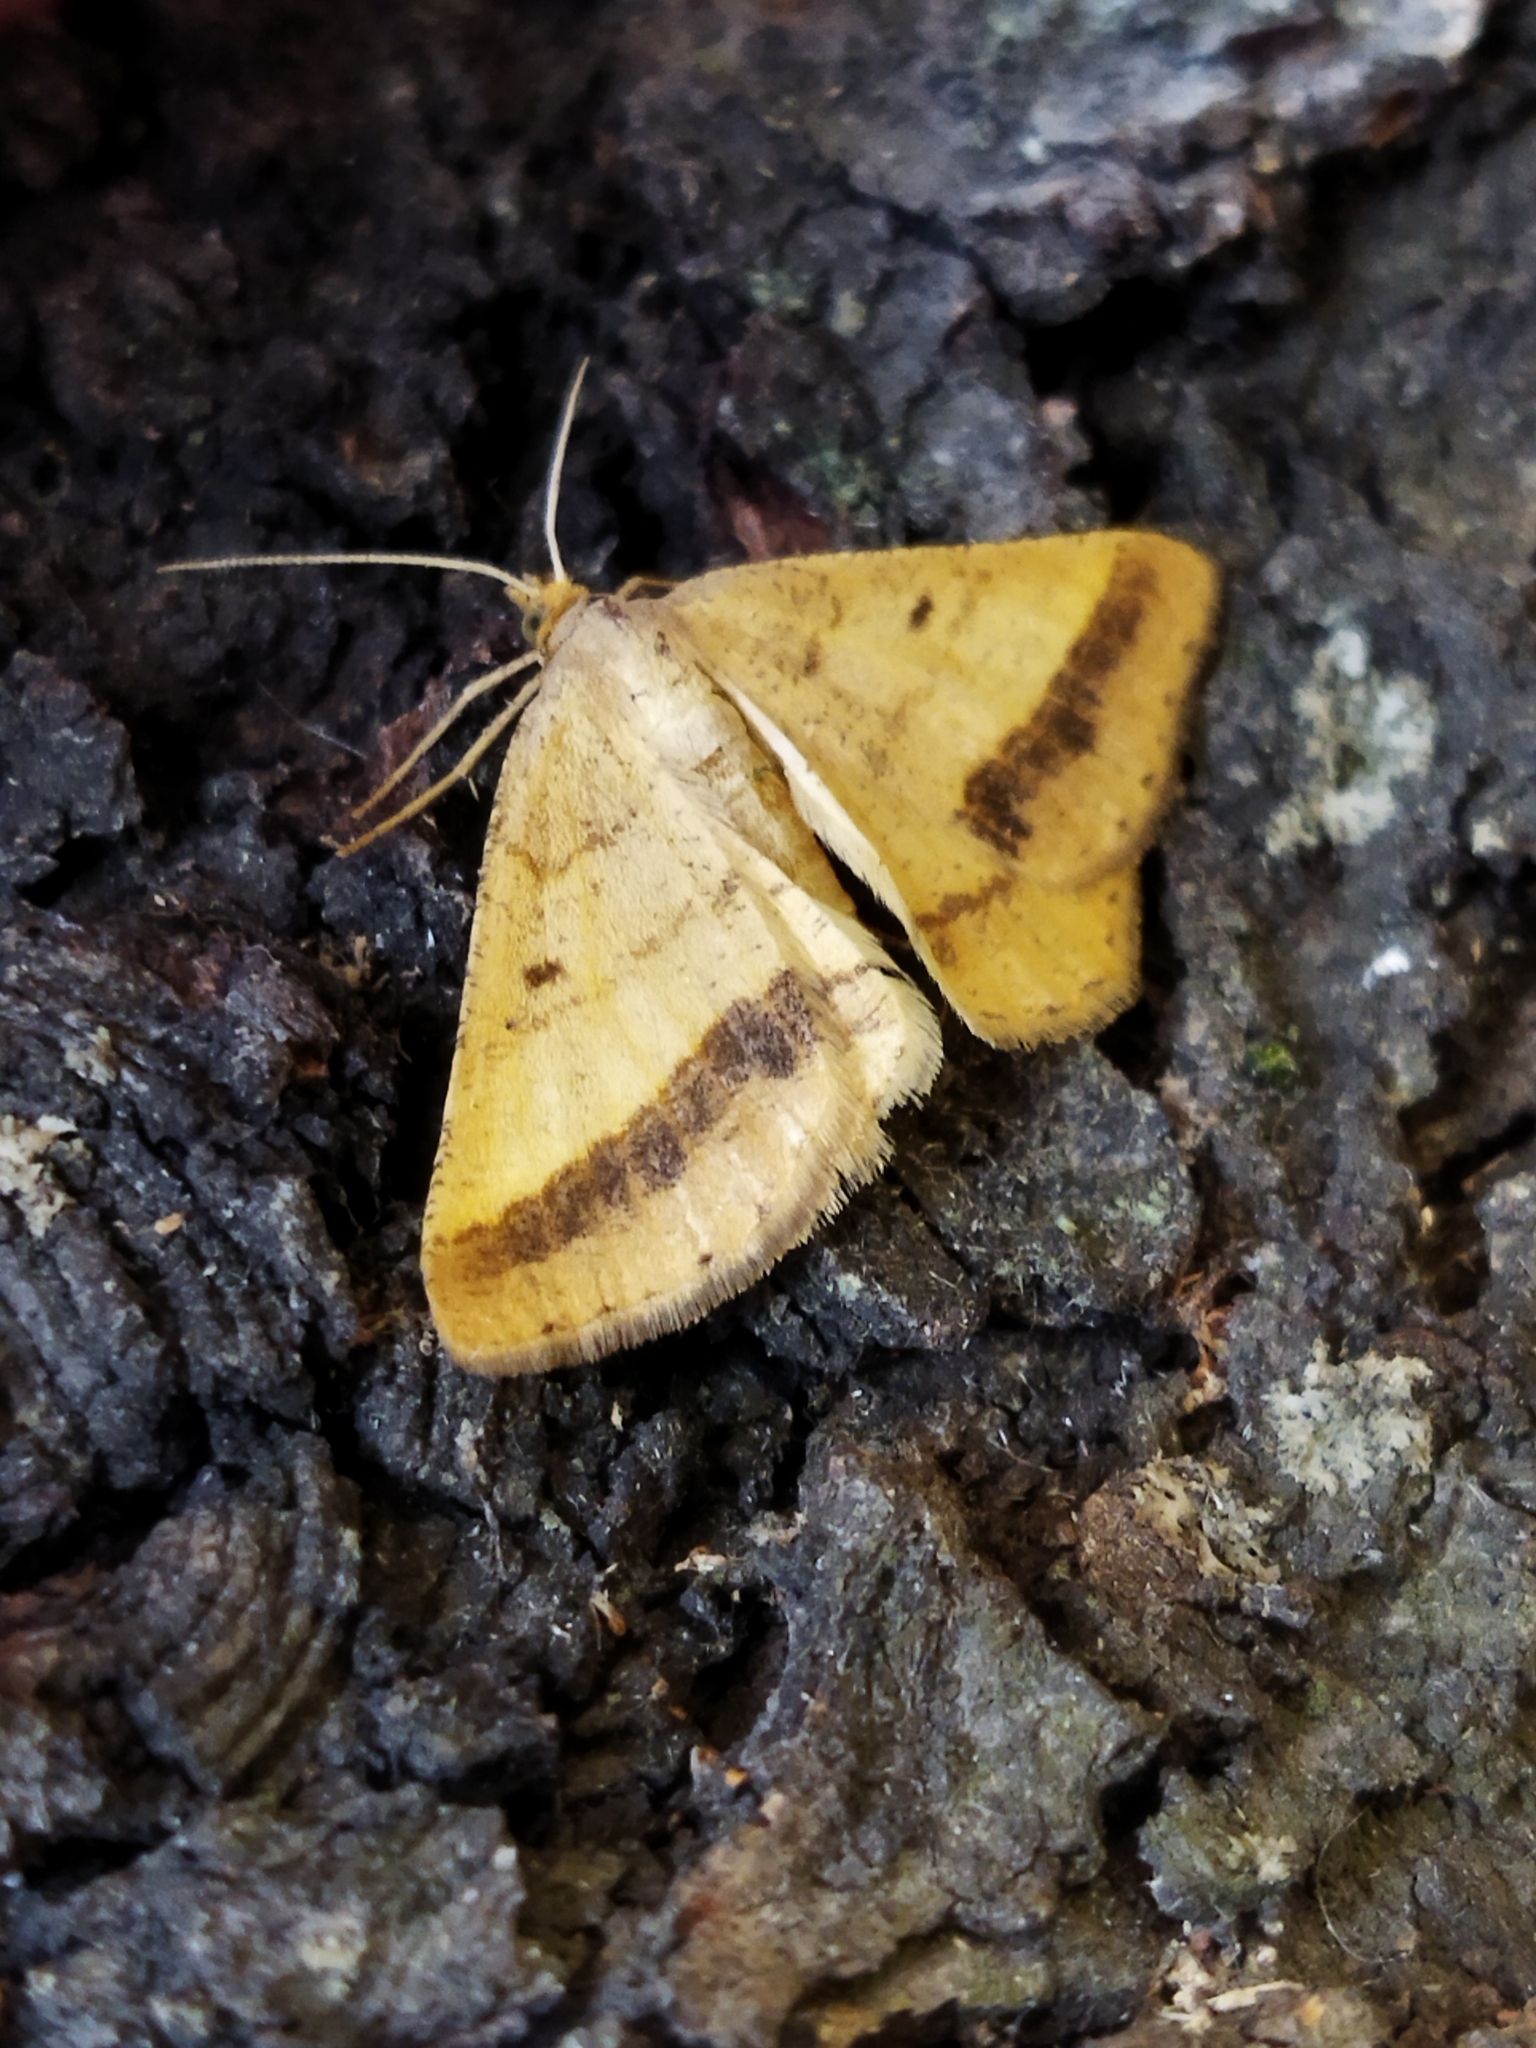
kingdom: Animalia
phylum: Arthropoda
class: Insecta
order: Lepidoptera
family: Geometridae
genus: Tephrina
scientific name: Tephrina arenacearia
